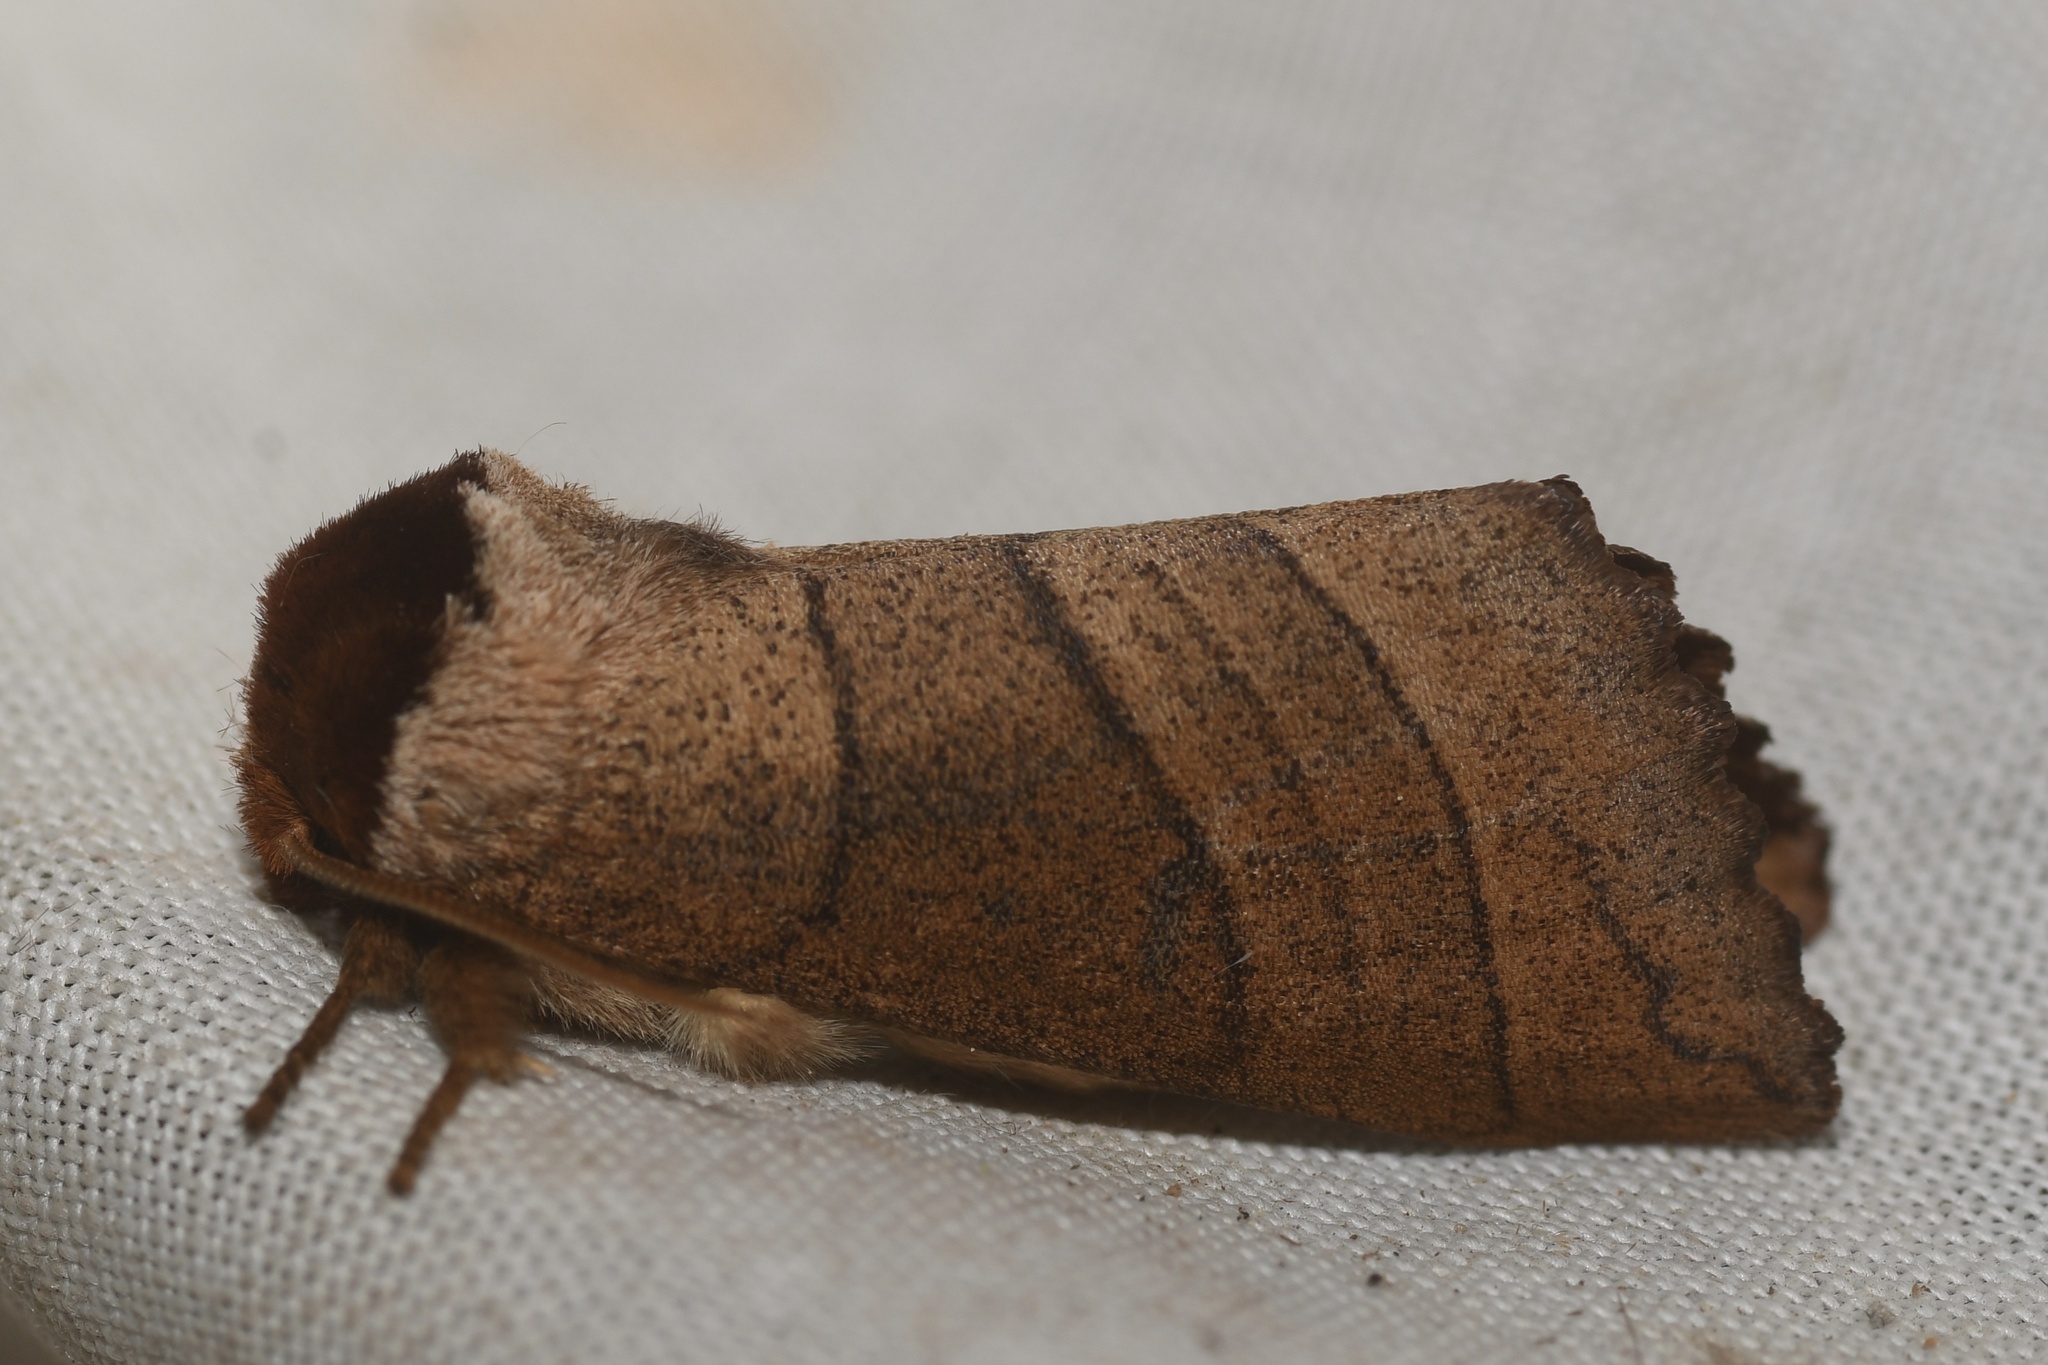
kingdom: Animalia
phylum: Arthropoda
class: Insecta
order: Lepidoptera
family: Notodontidae
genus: Datana
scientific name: Datana ministra
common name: Yellow-necked caterpillar moth
